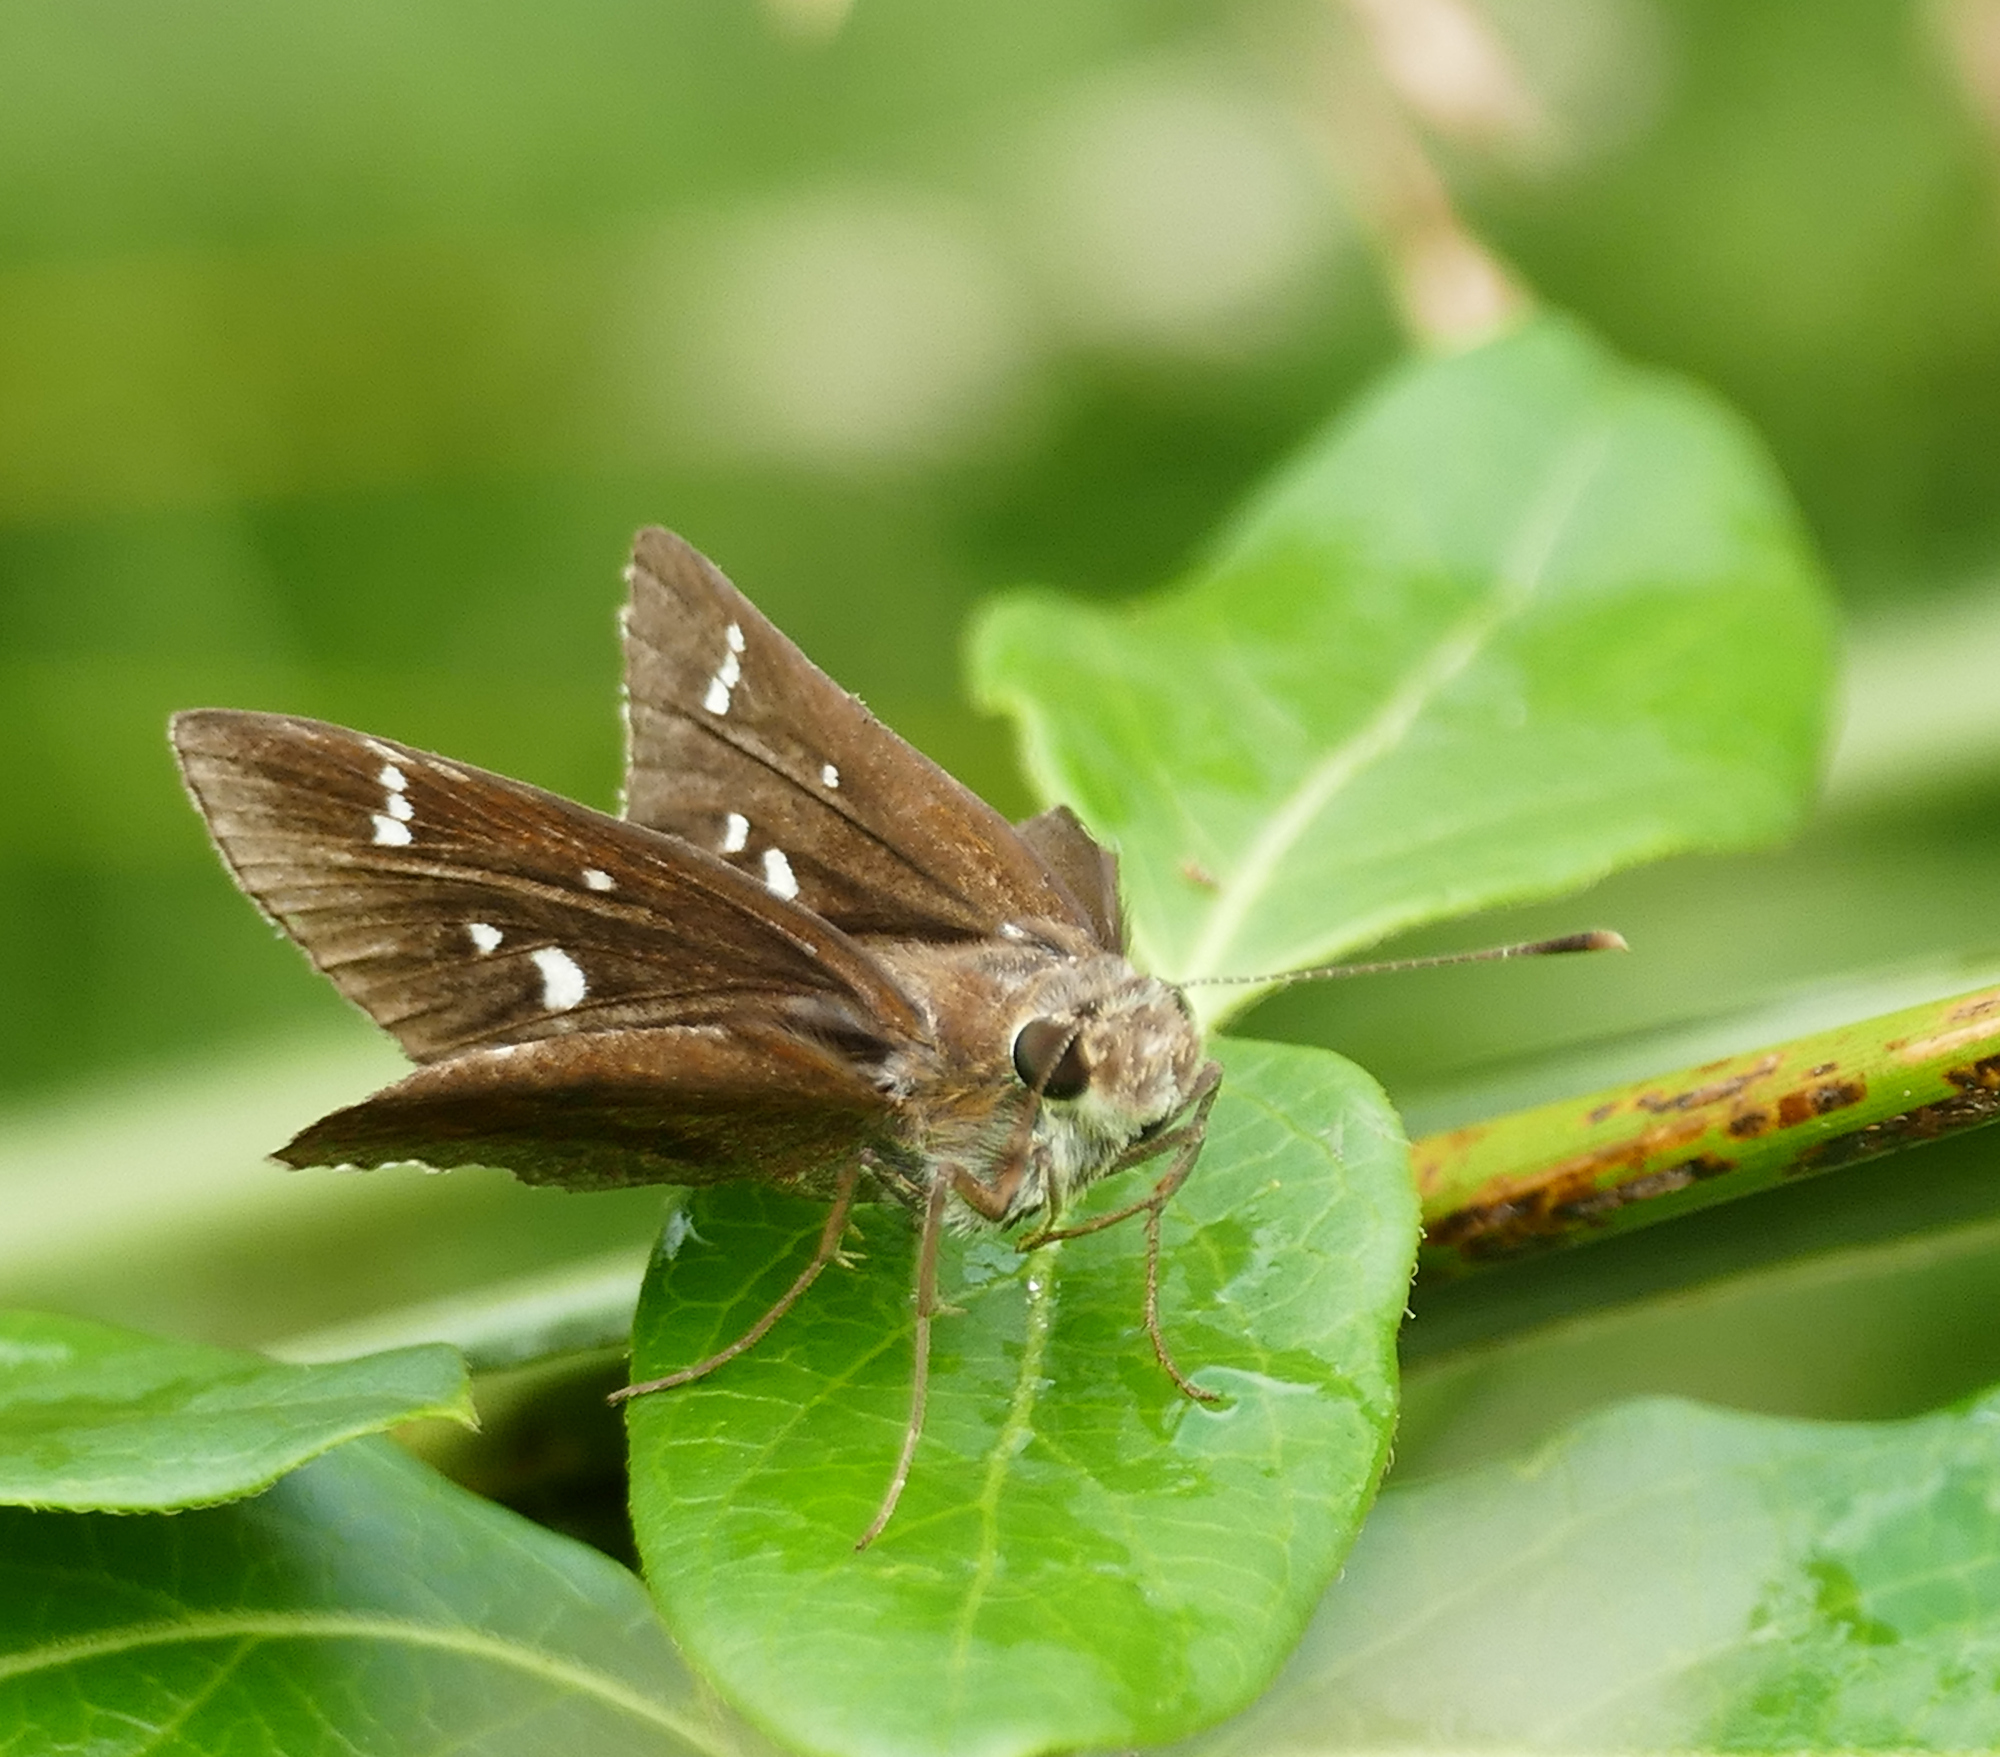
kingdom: Animalia
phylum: Arthropoda
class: Insecta
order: Lepidoptera
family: Hesperiidae
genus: Lerema
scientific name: Lerema accius
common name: Clouded skipper
